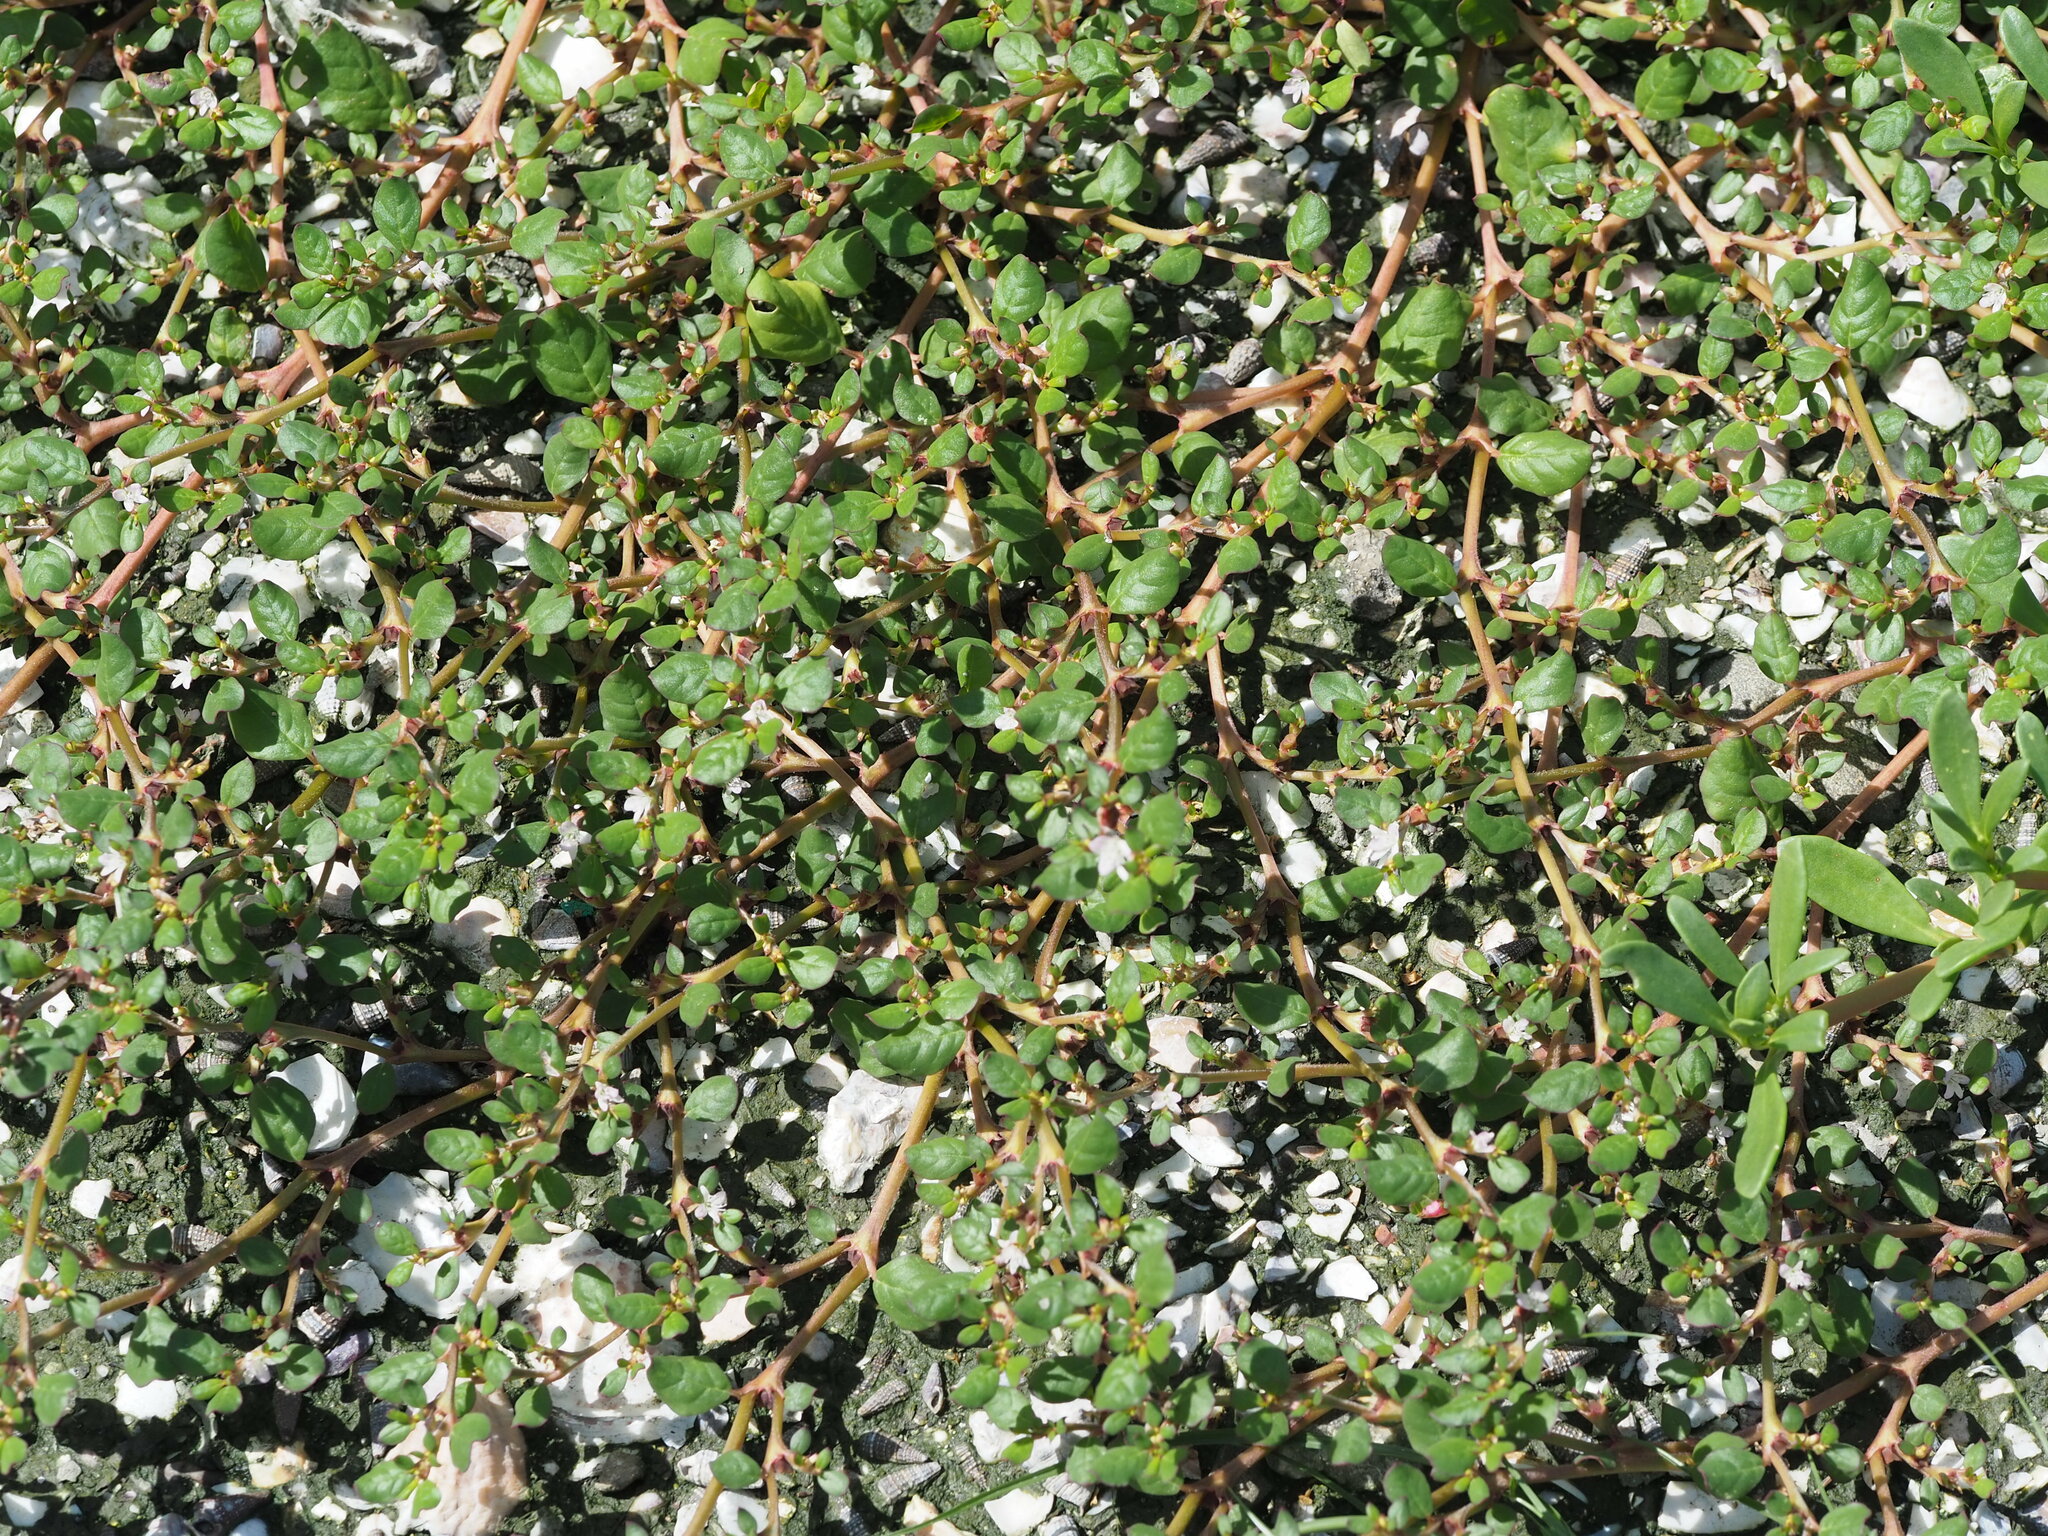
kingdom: Plantae
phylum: Tracheophyta
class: Magnoliopsida
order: Caryophyllales
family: Aizoaceae
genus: Trianthema
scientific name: Trianthema portulacastrum
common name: Desert horsepurslane
